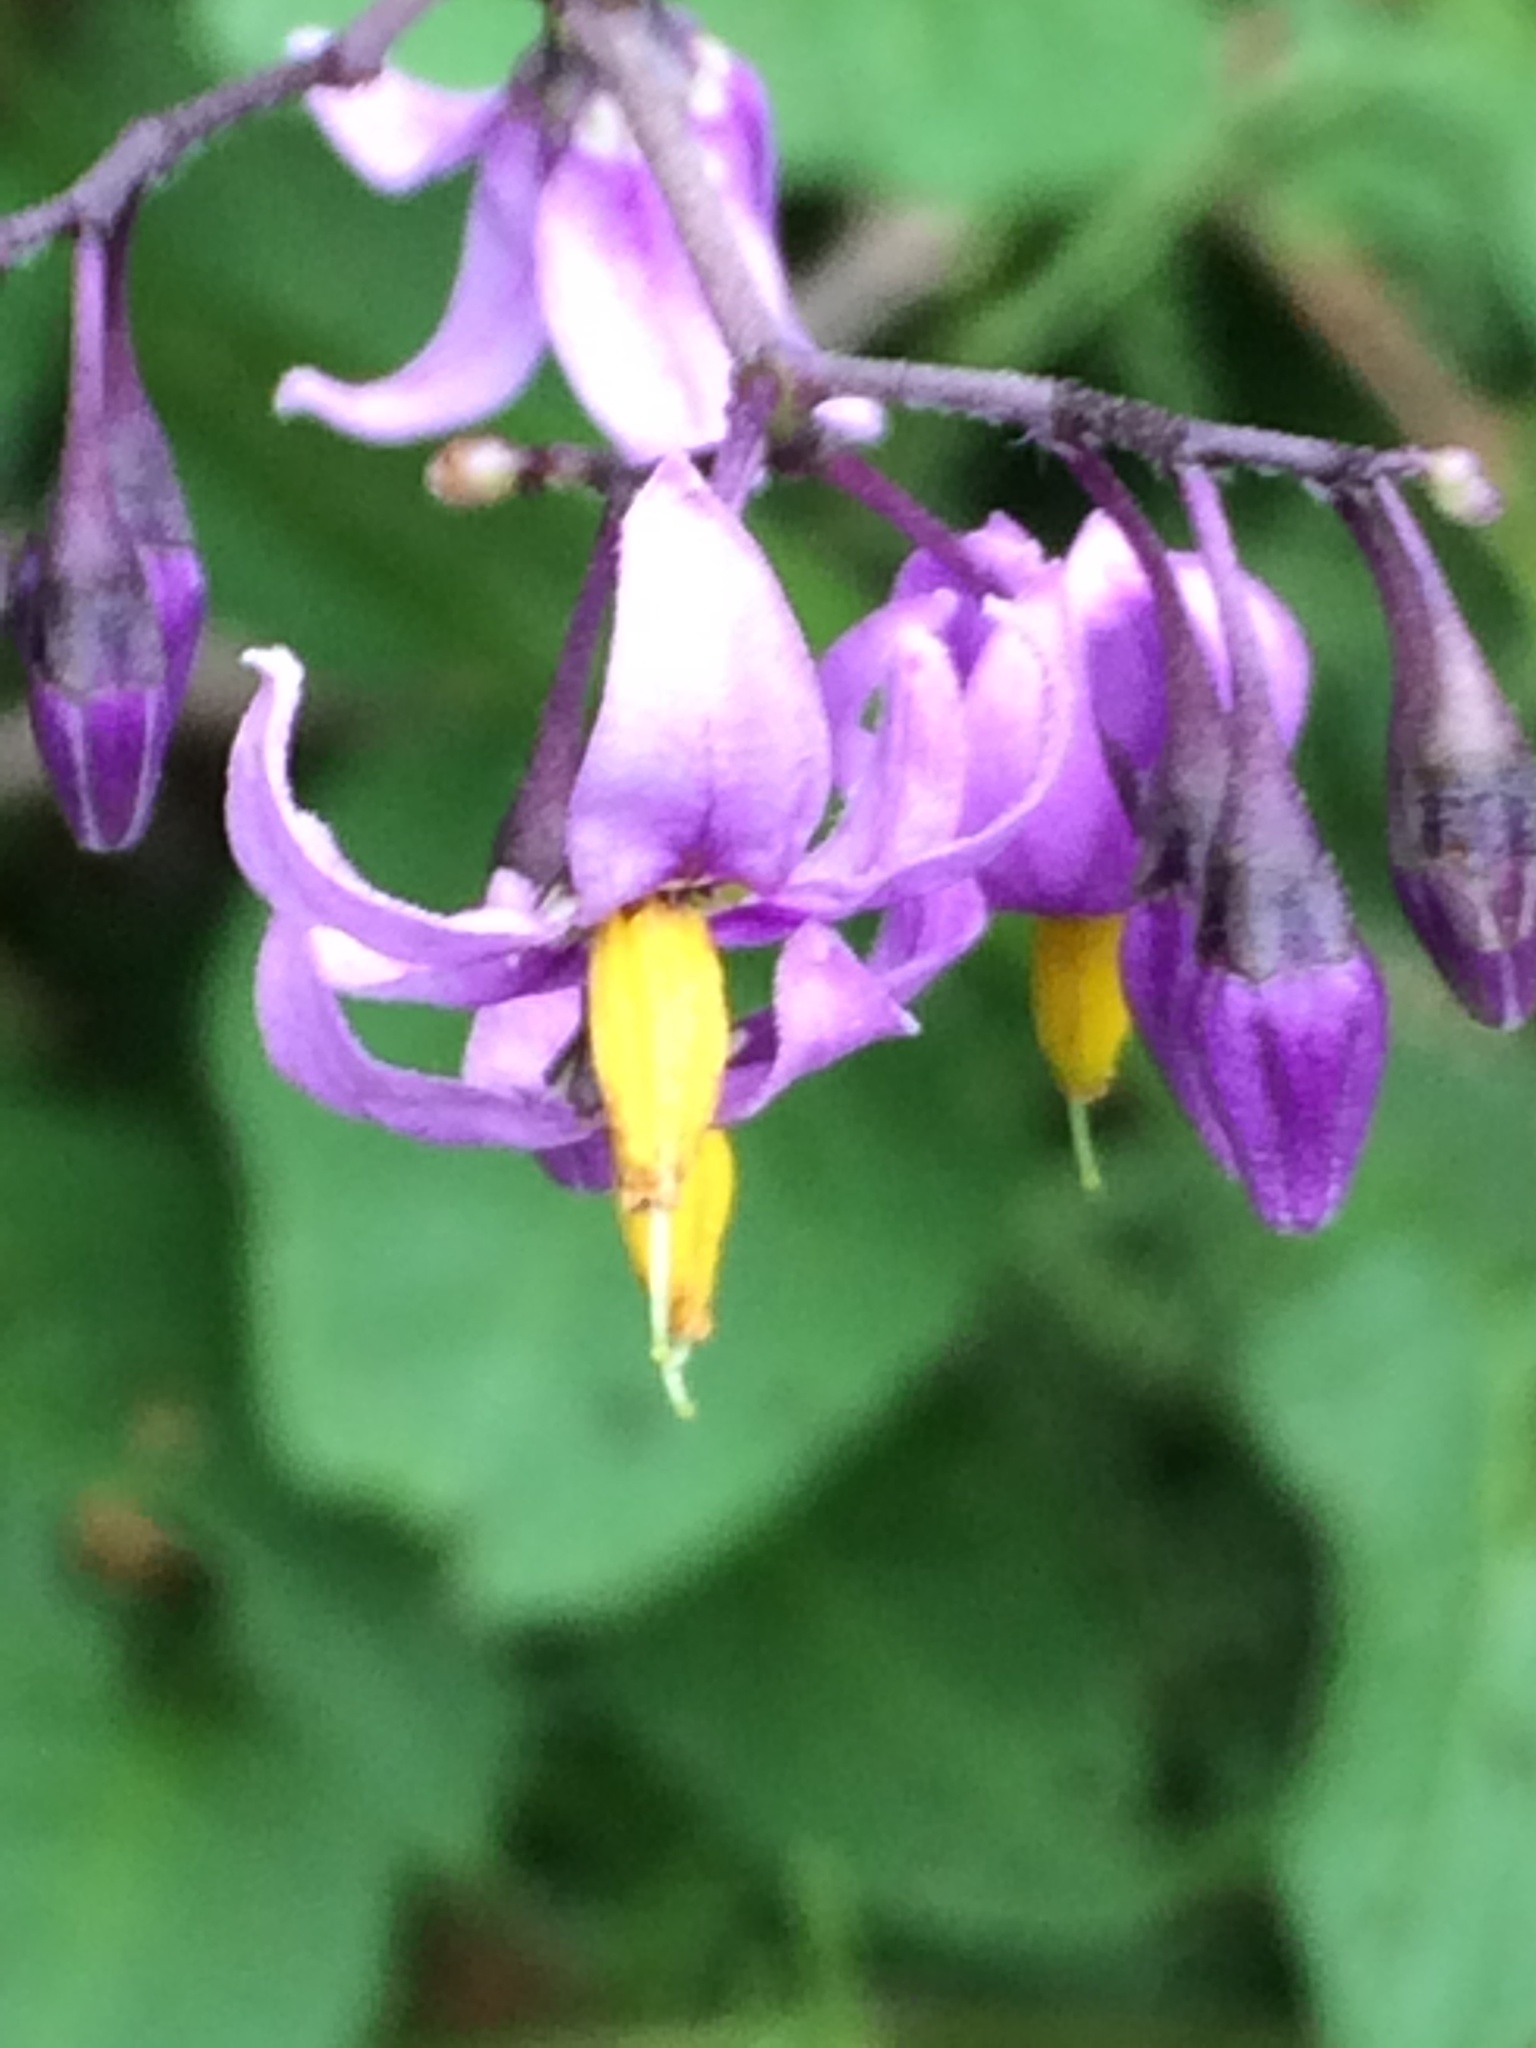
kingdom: Plantae
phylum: Tracheophyta
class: Magnoliopsida
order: Solanales
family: Solanaceae
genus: Solanum
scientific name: Solanum dulcamara
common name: Climbing nightshade
